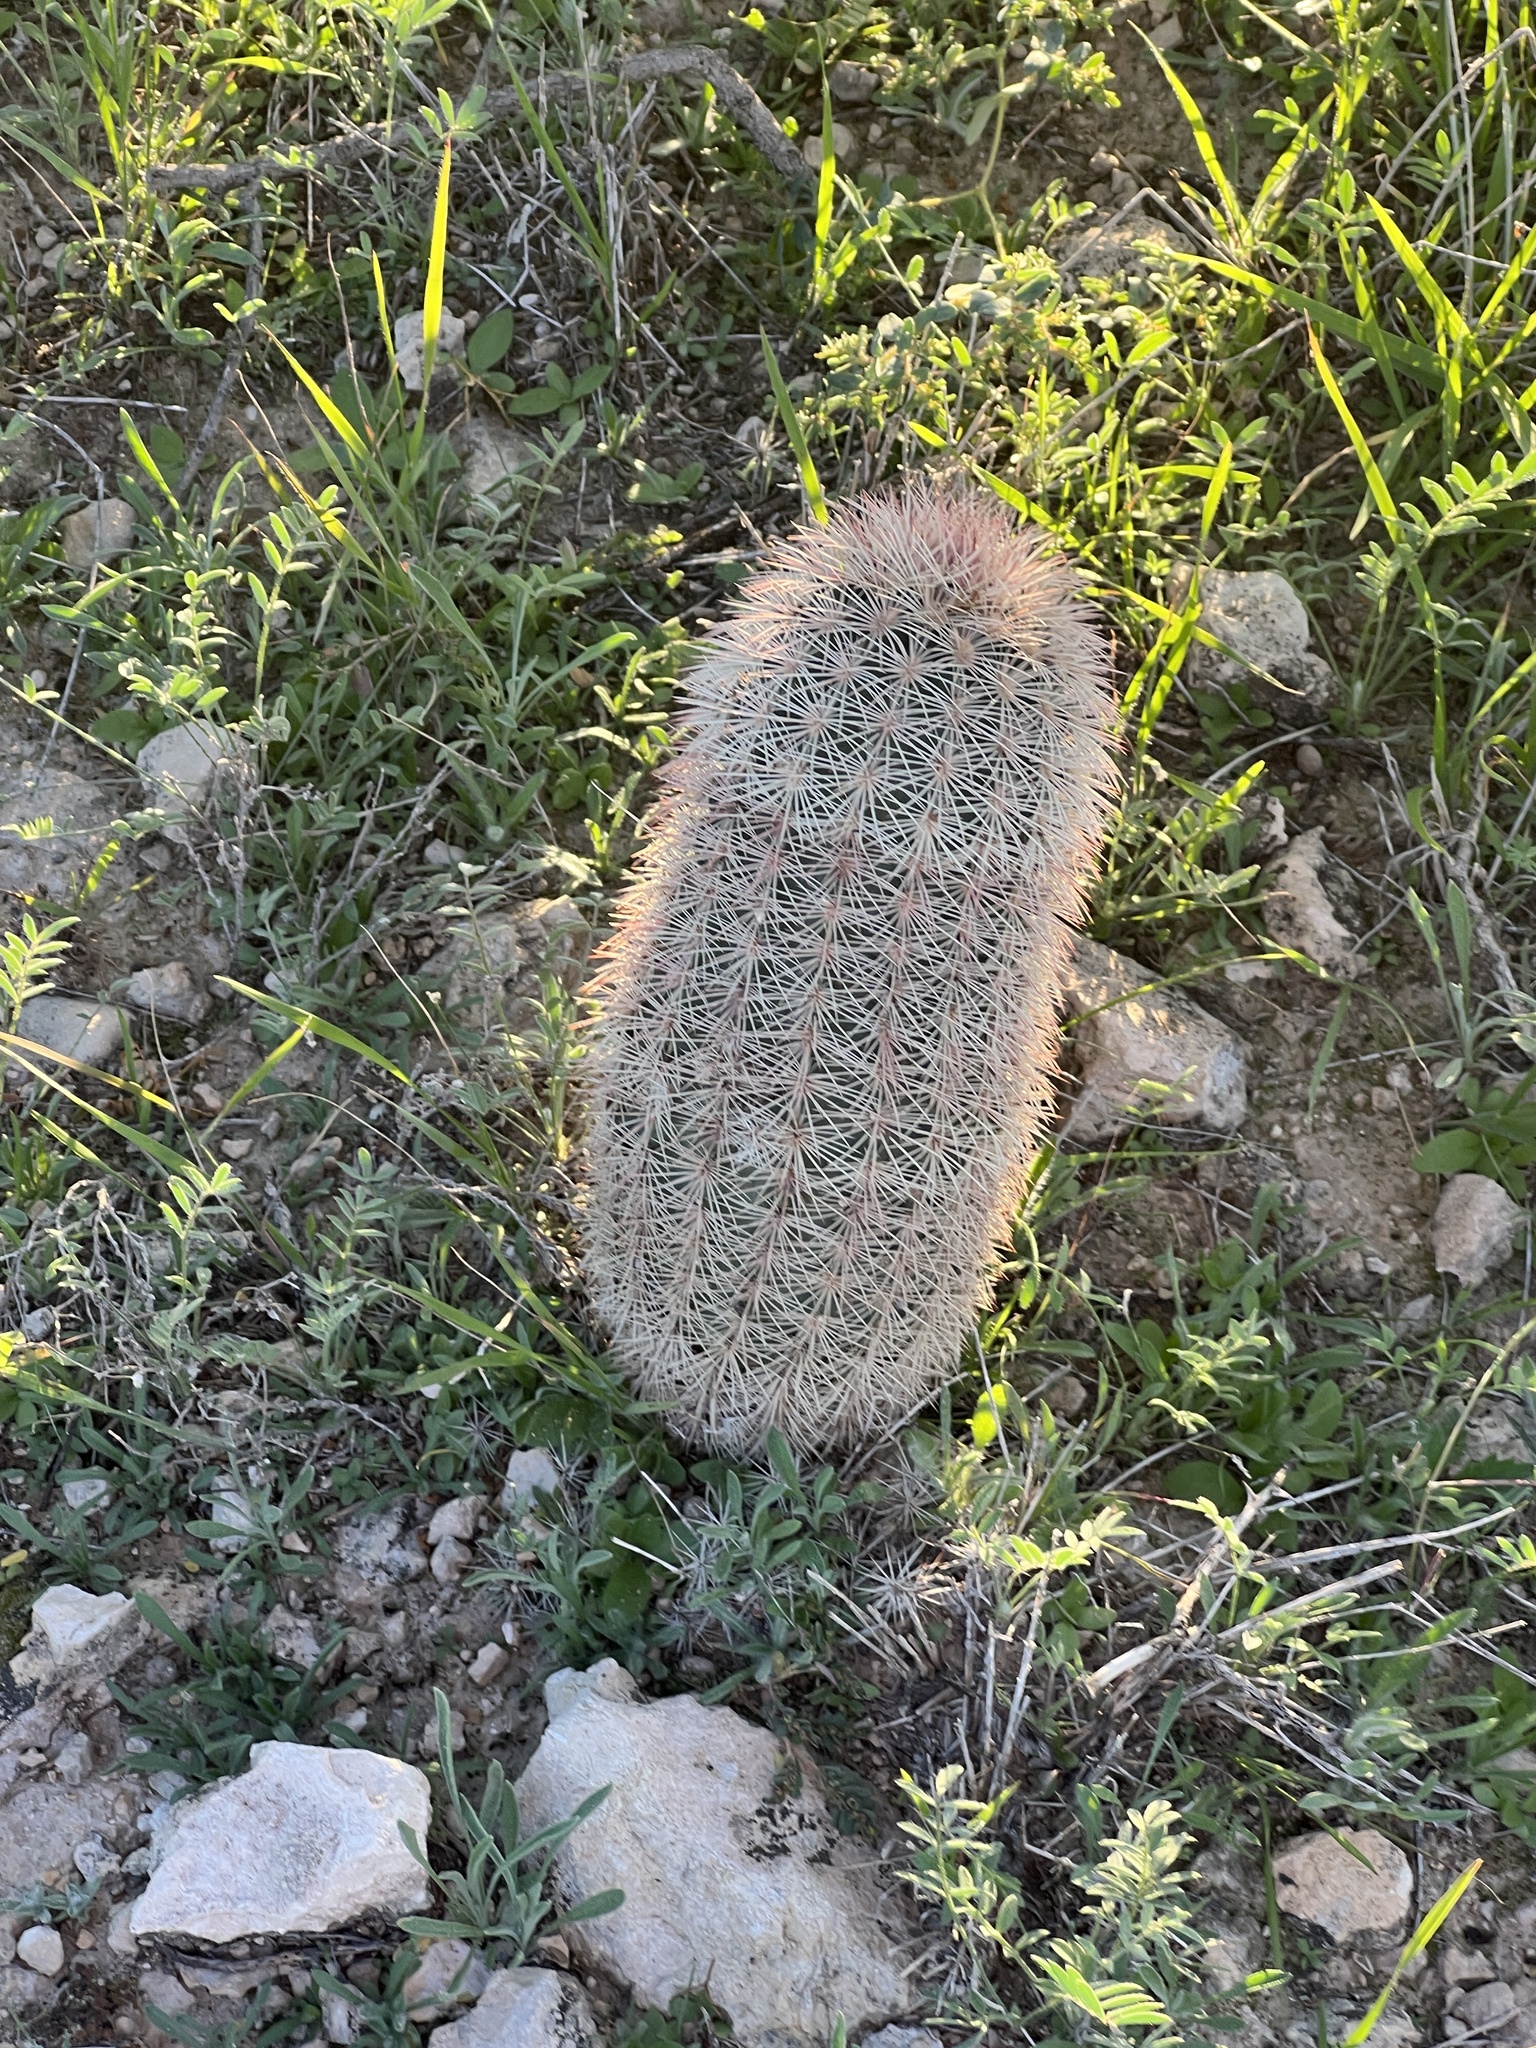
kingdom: Plantae
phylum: Tracheophyta
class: Magnoliopsida
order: Caryophyllales
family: Cactaceae
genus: Echinocereus
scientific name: Echinocereus dasyacanthus
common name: Spiny hedgehog cactus
